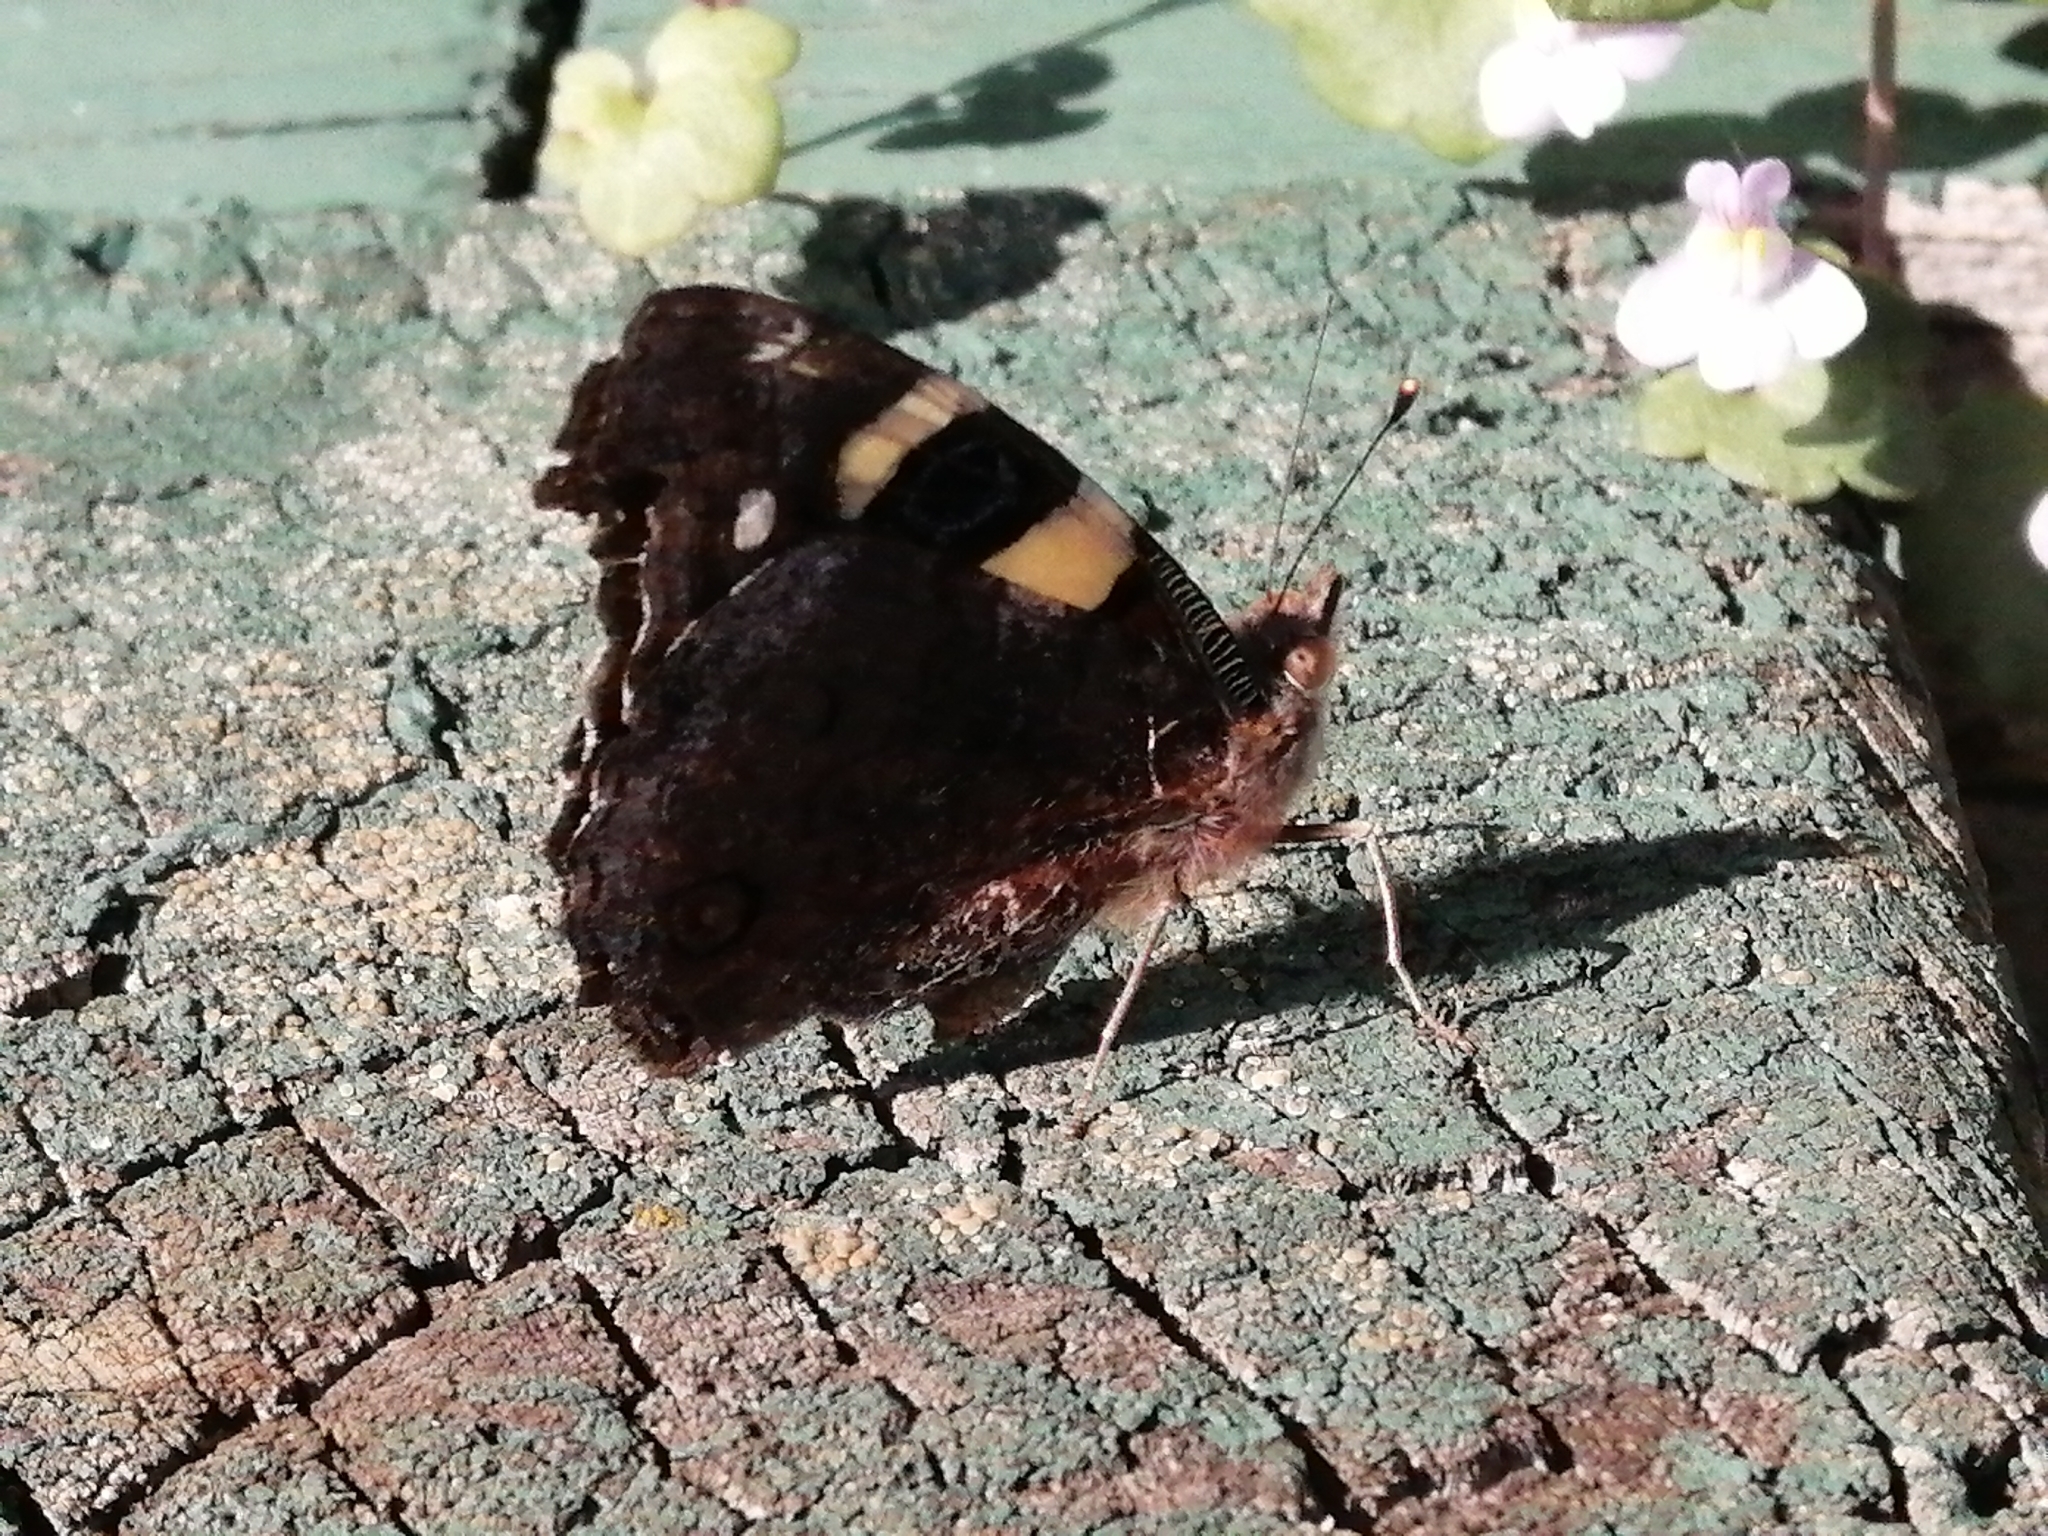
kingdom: Animalia
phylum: Arthropoda
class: Insecta
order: Lepidoptera
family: Nymphalidae
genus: Vanessa
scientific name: Vanessa itea
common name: Yellow admiral
